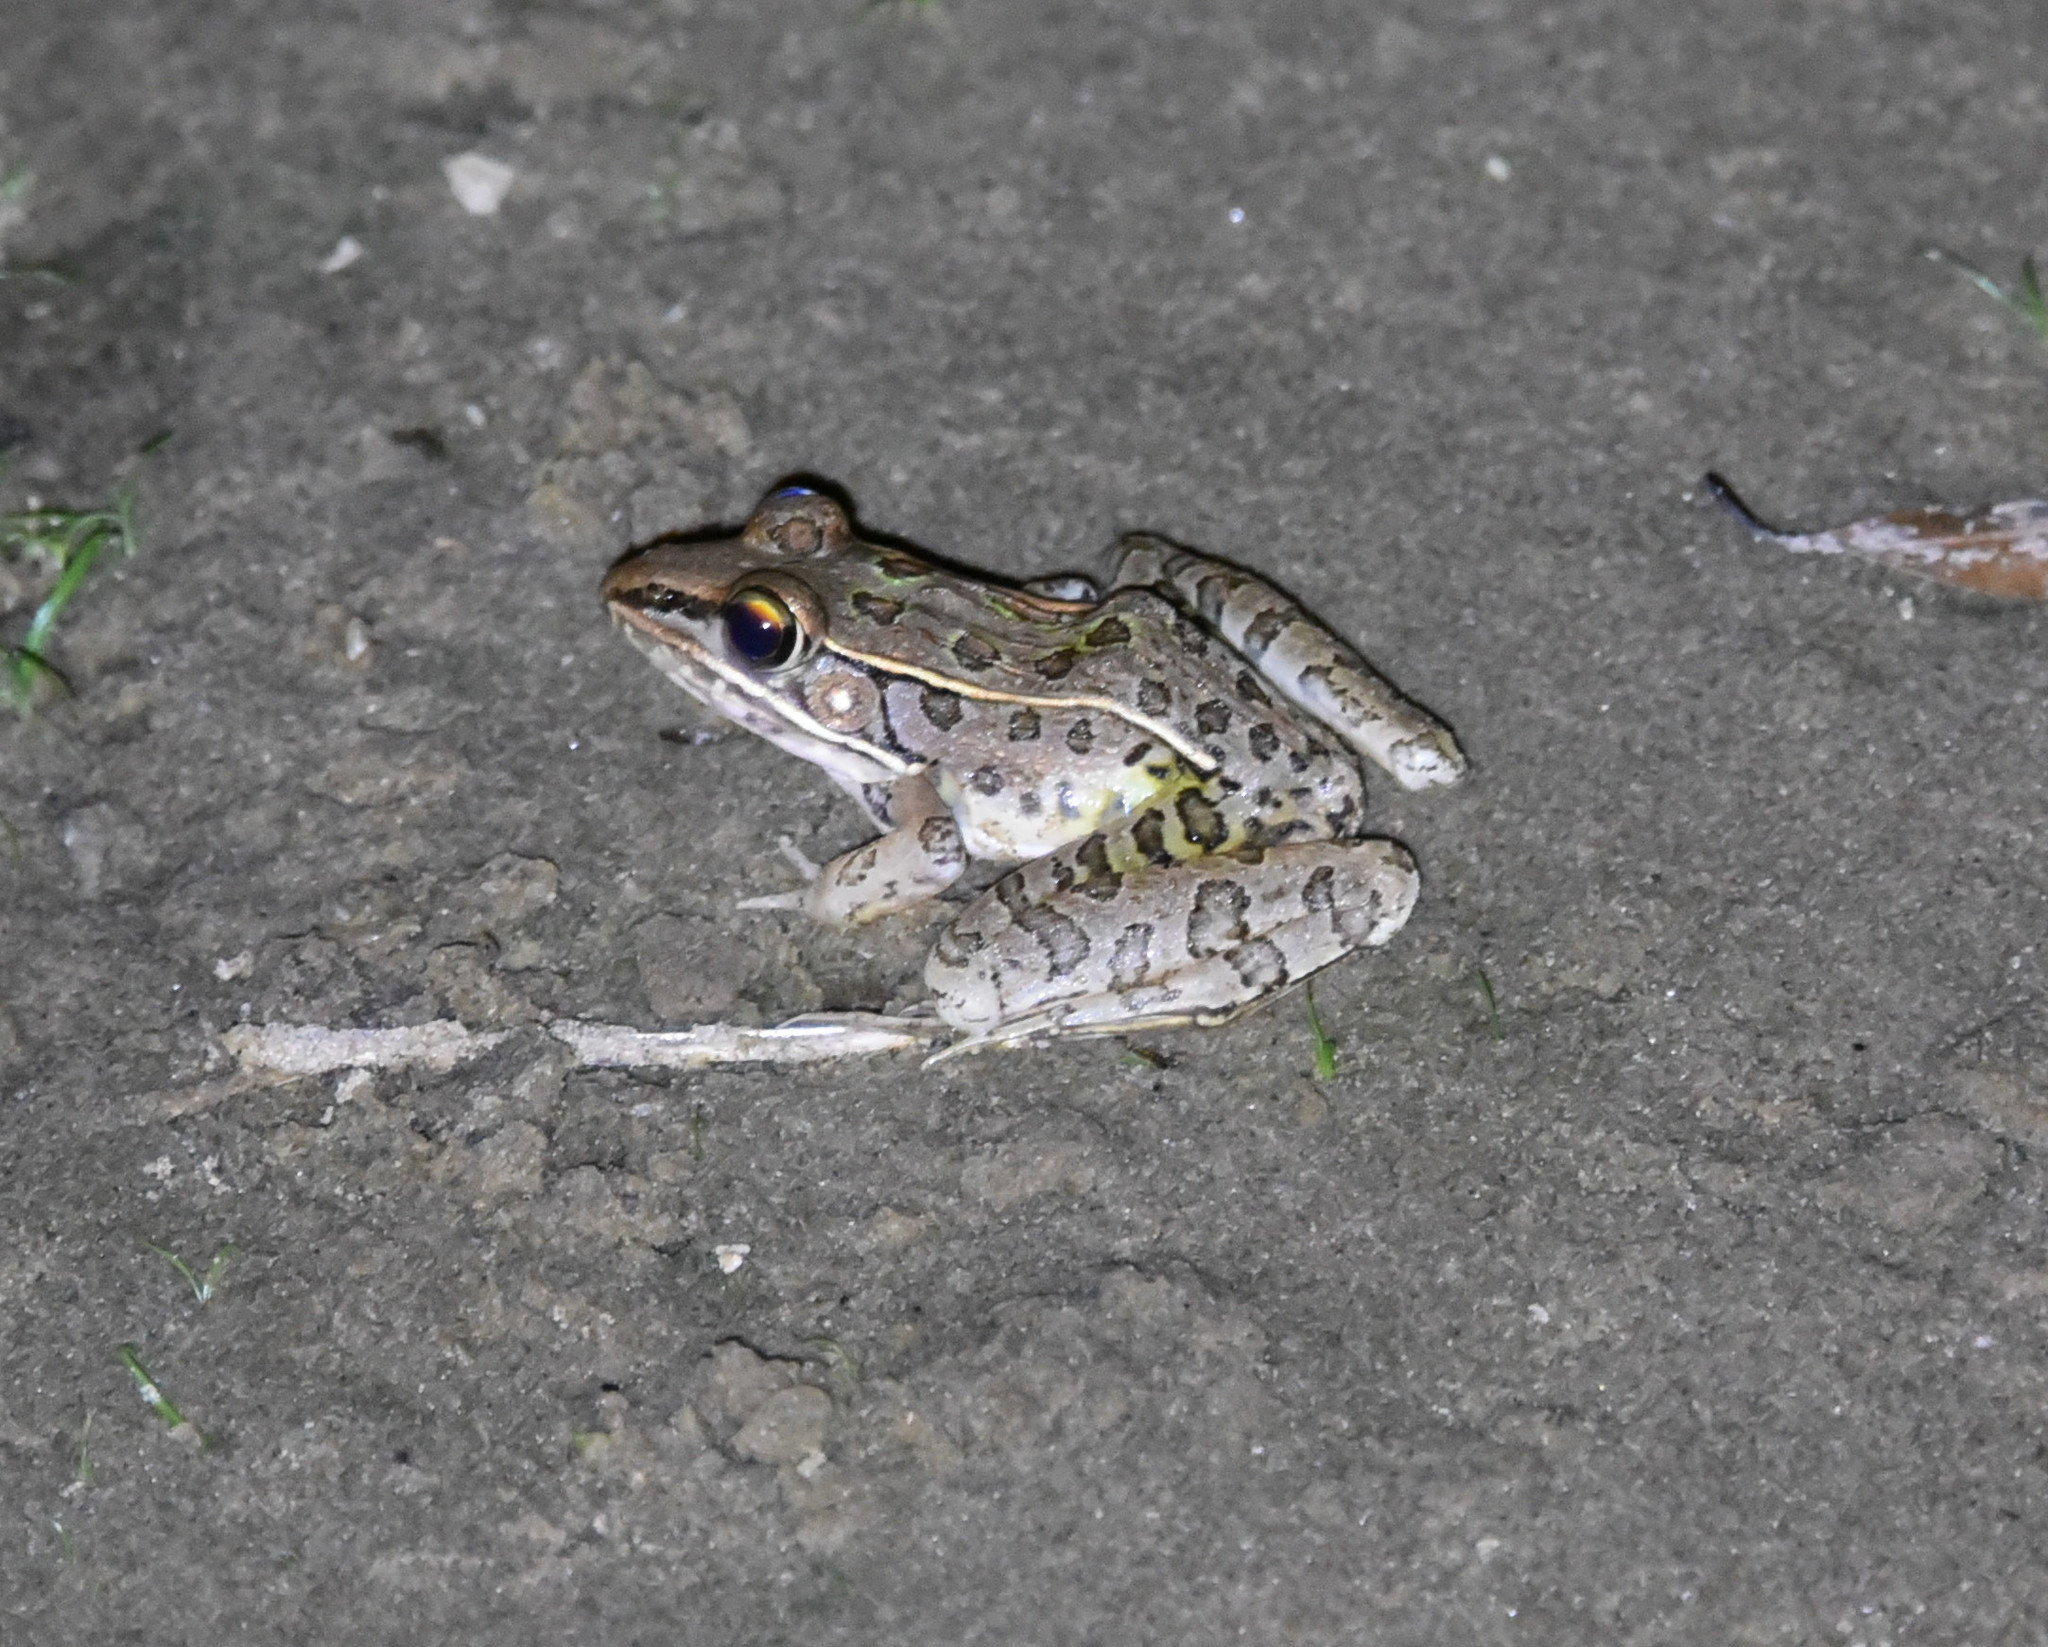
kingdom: Animalia
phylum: Chordata
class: Amphibia
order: Anura
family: Ranidae
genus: Lithobates
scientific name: Lithobates sphenocephalus
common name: Southern leopard frog
